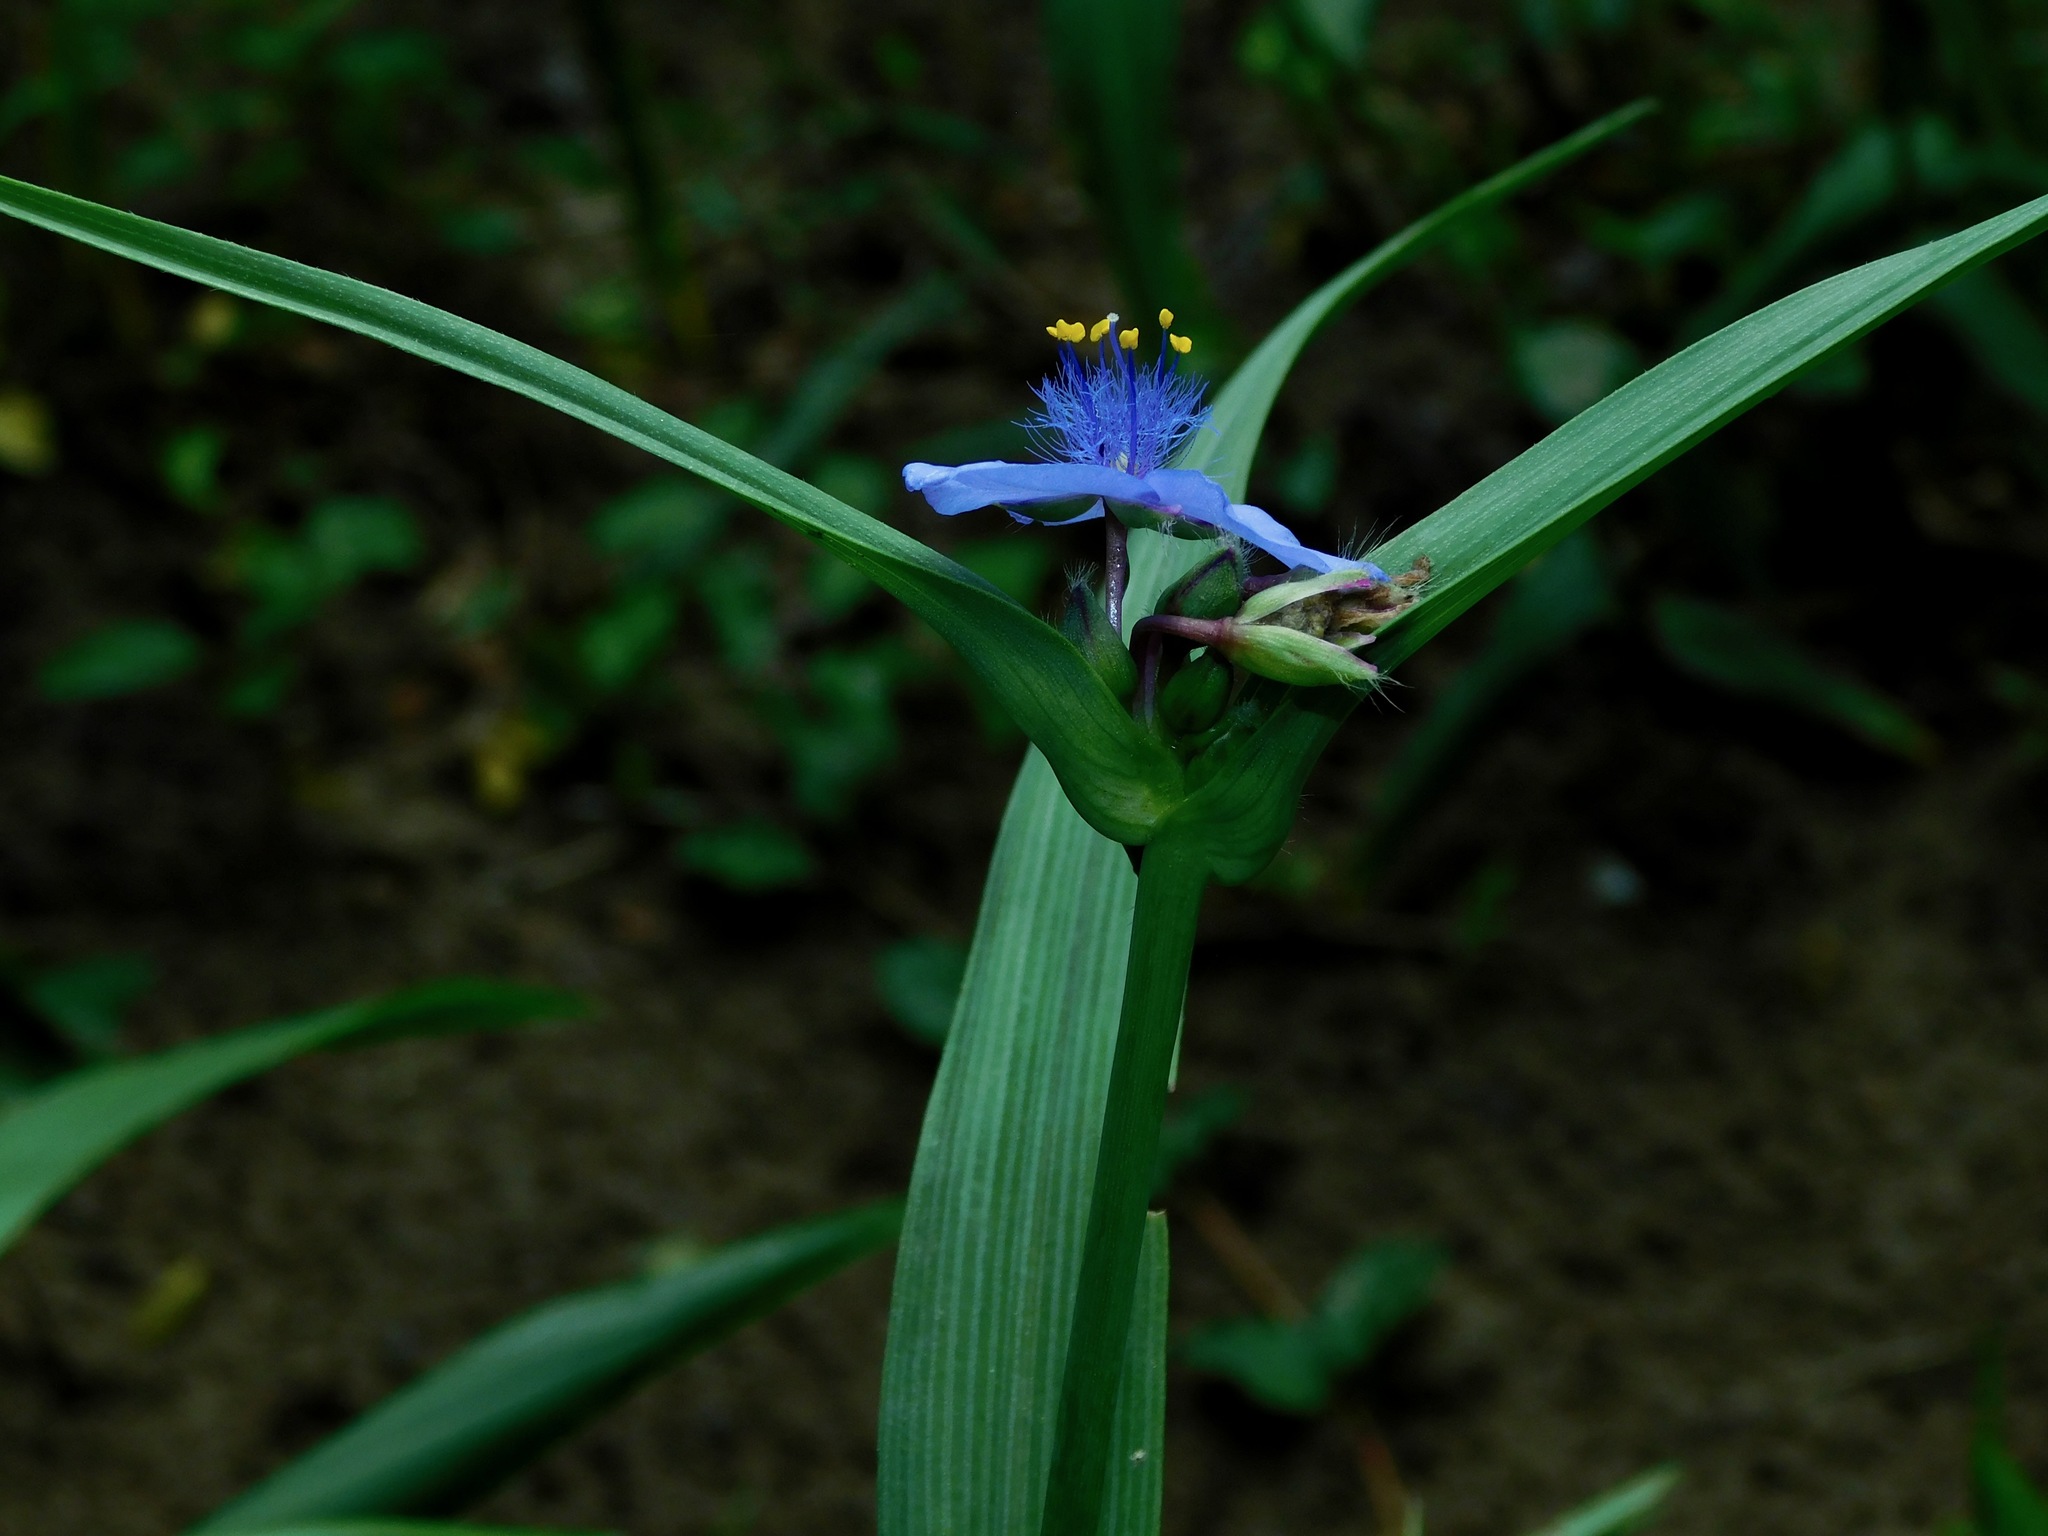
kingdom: Plantae
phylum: Tracheophyta
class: Liliopsida
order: Commelinales
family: Commelinaceae
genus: Tradescantia
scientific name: Tradescantia ohiensis
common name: Ohio spiderwort
